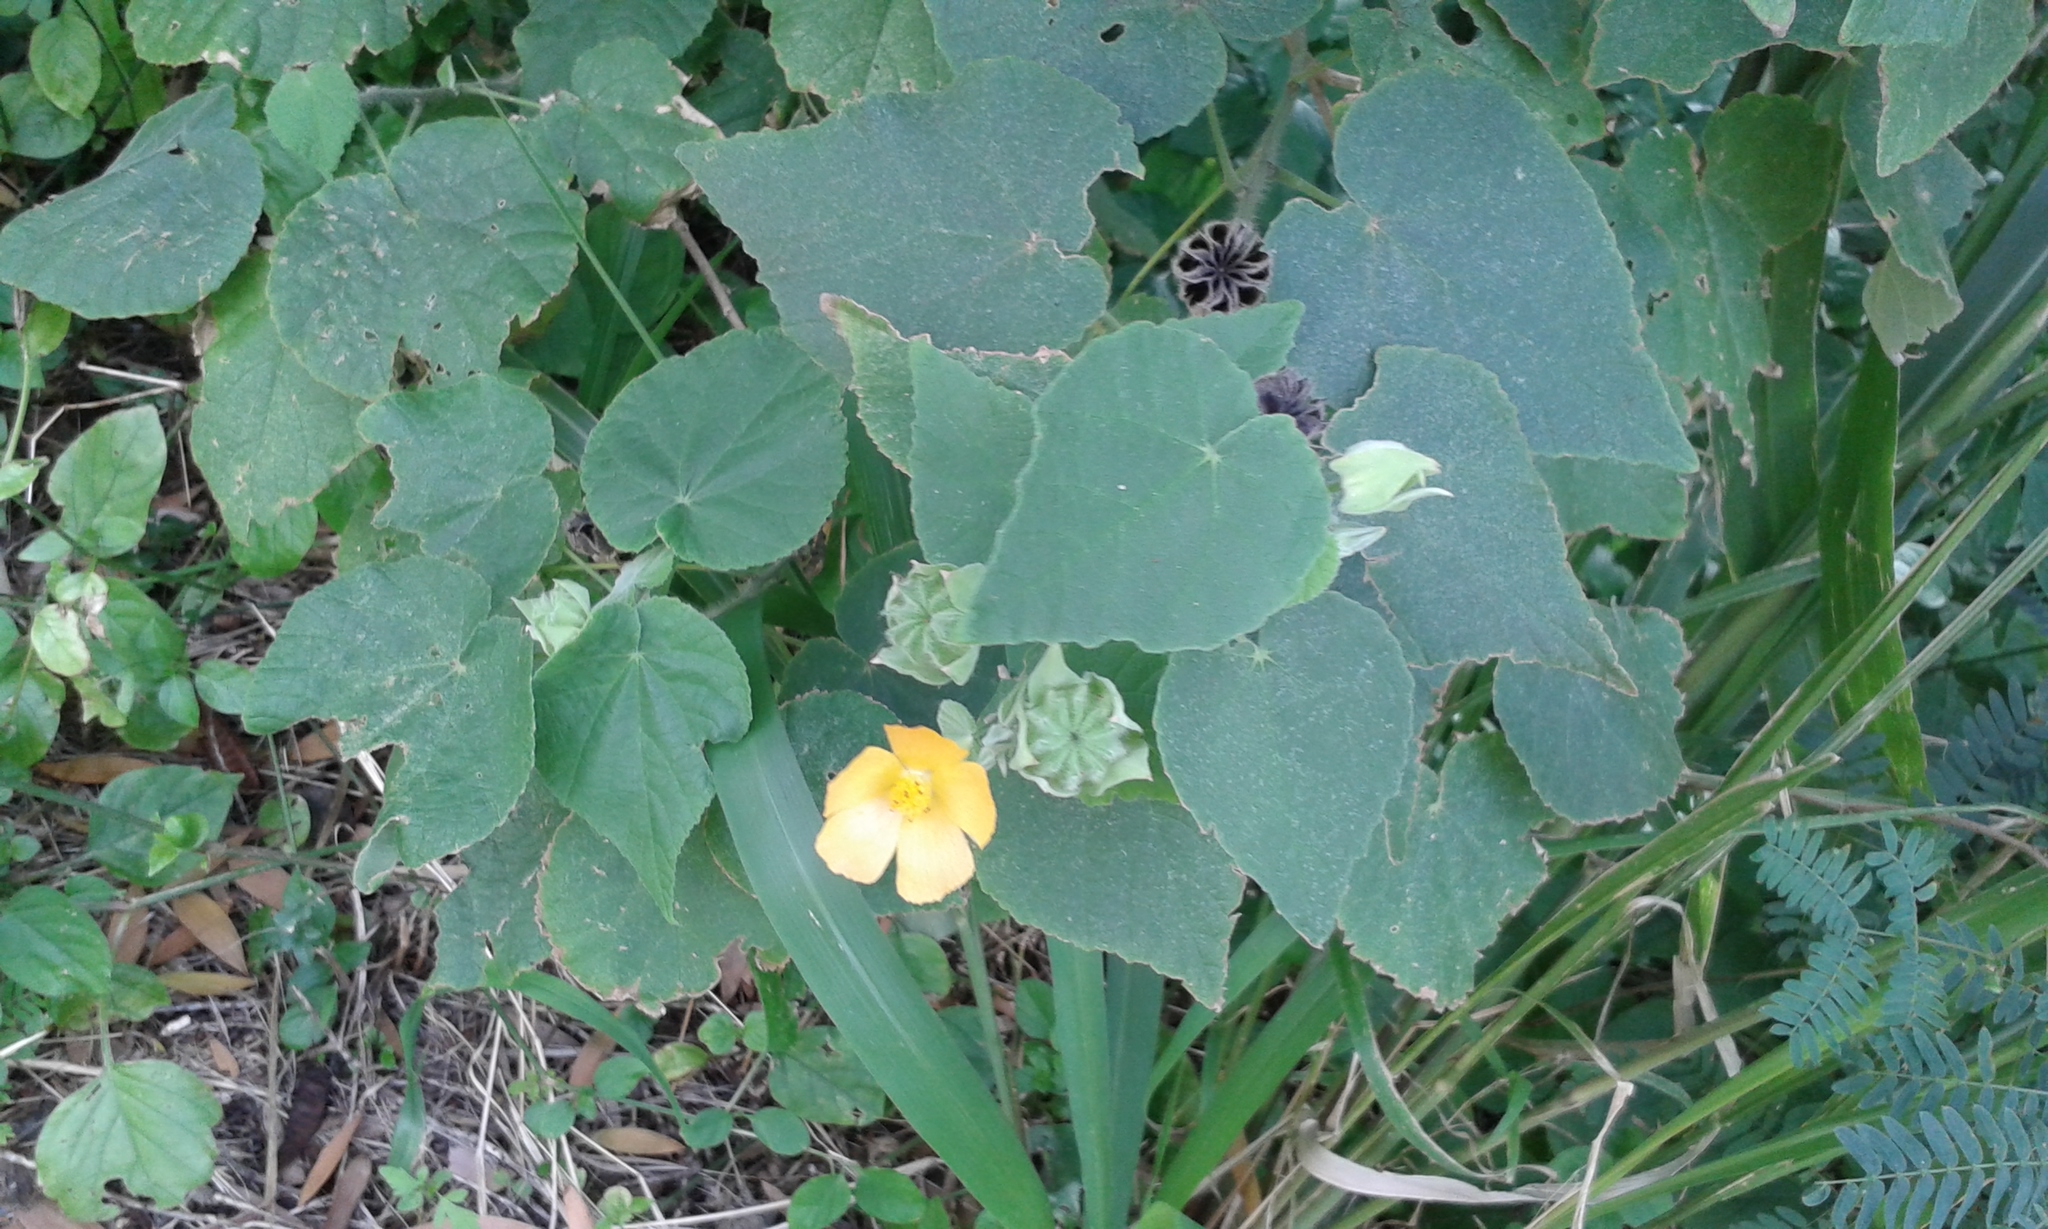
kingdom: Plantae
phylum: Tracheophyta
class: Magnoliopsida
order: Malvales
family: Malvaceae
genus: Abutilon
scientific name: Abutilon grandifolium
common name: Hairy abutilon
